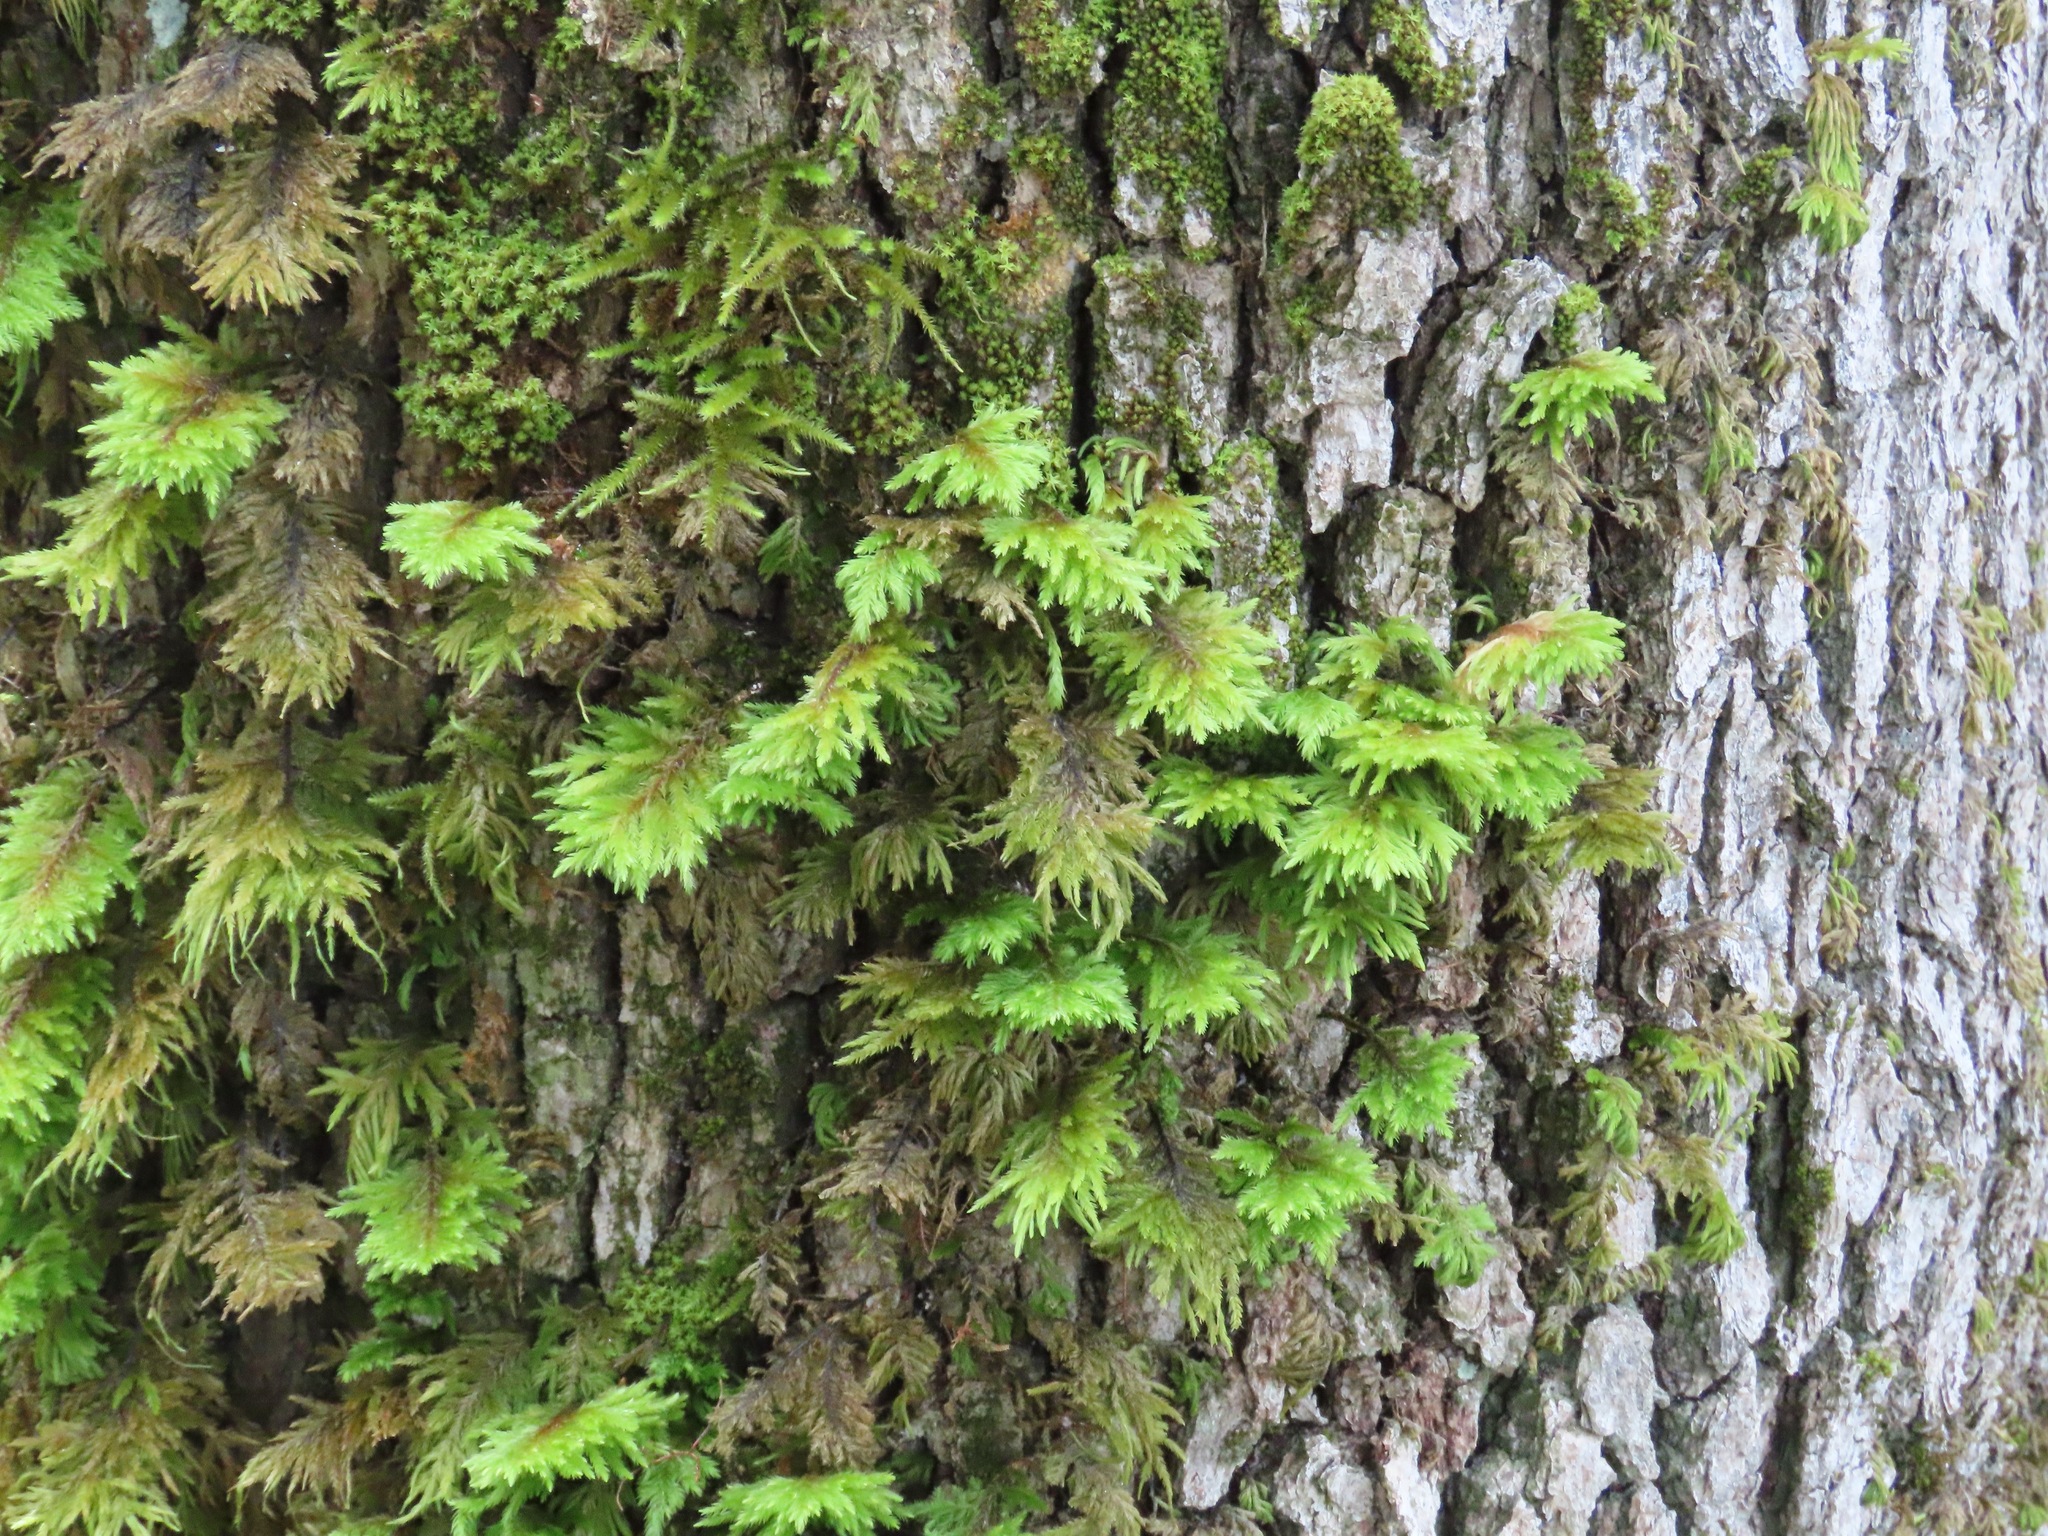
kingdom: Plantae
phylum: Bryophyta
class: Bryopsida
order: Hypnales
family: Cryphaeaceae
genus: Dendroalsia
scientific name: Dendroalsia abietina
